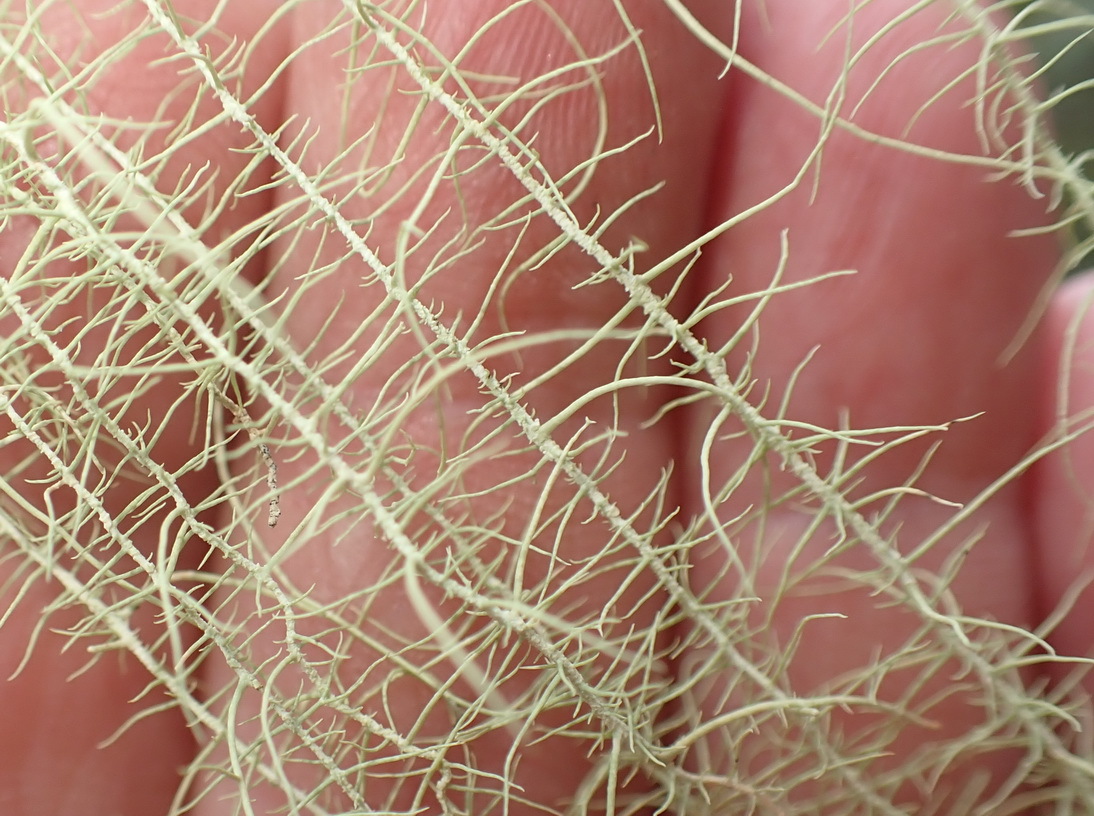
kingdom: Fungi
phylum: Ascomycota
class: Lecanoromycetes
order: Lecanorales
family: Parmeliaceae
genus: Dolichousnea
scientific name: Dolichousnea trichodeoides
